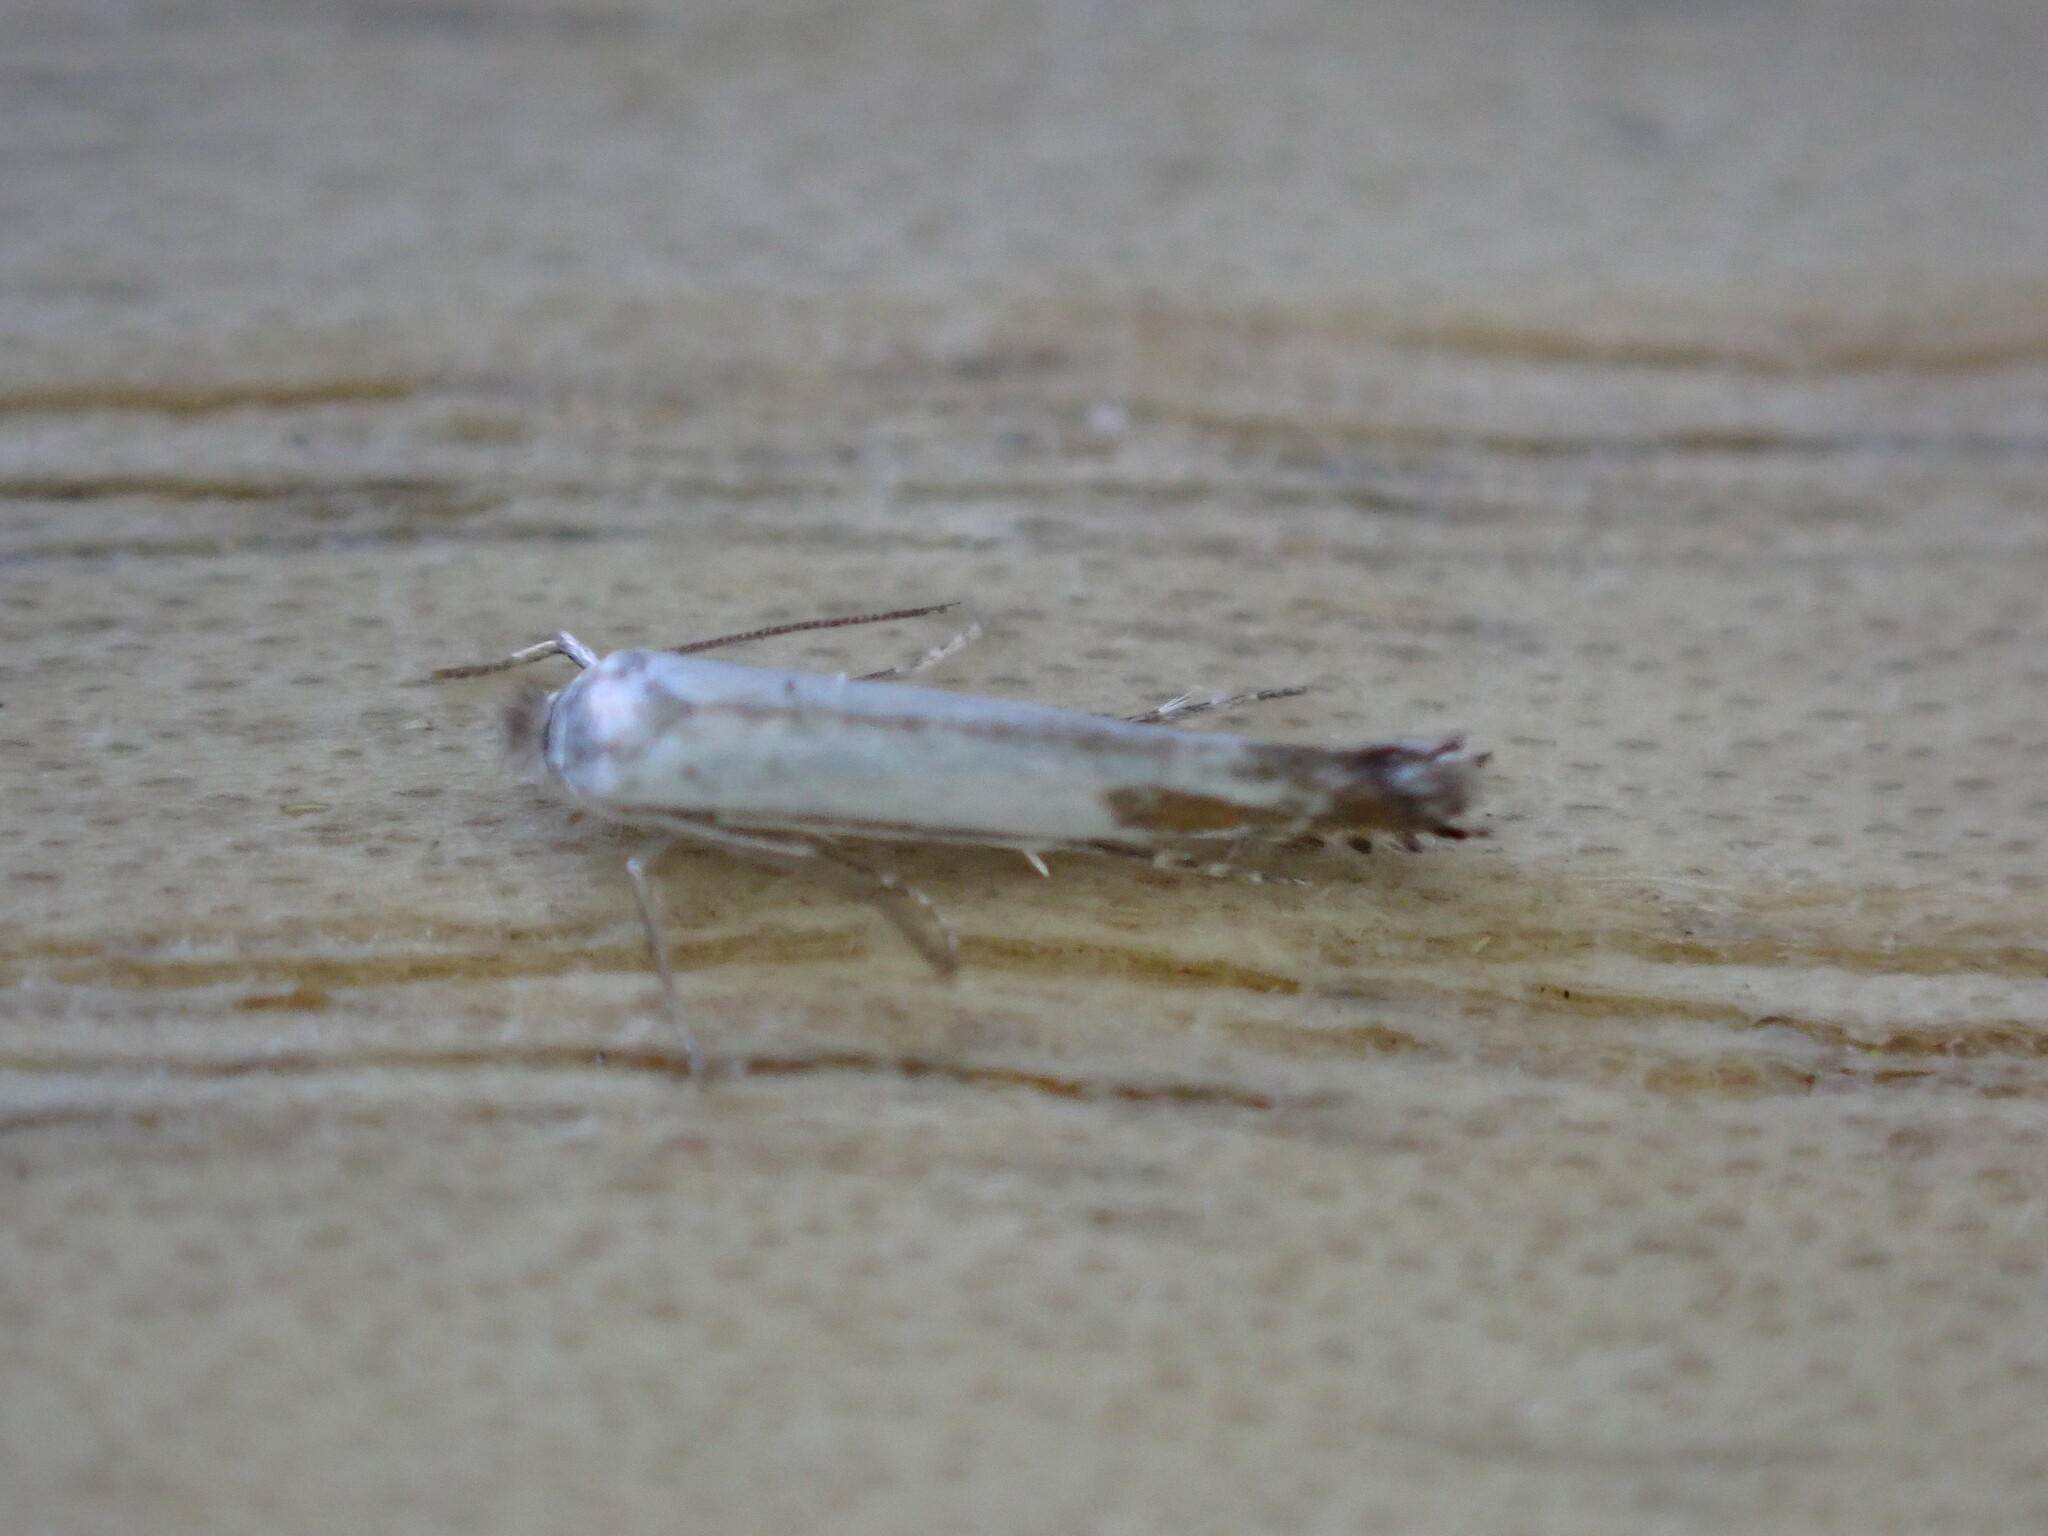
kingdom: Animalia
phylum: Arthropoda
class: Insecta
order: Lepidoptera
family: Lyonetiidae
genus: Lyonetia
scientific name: Lyonetia clerkella
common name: Apple leaf miner
